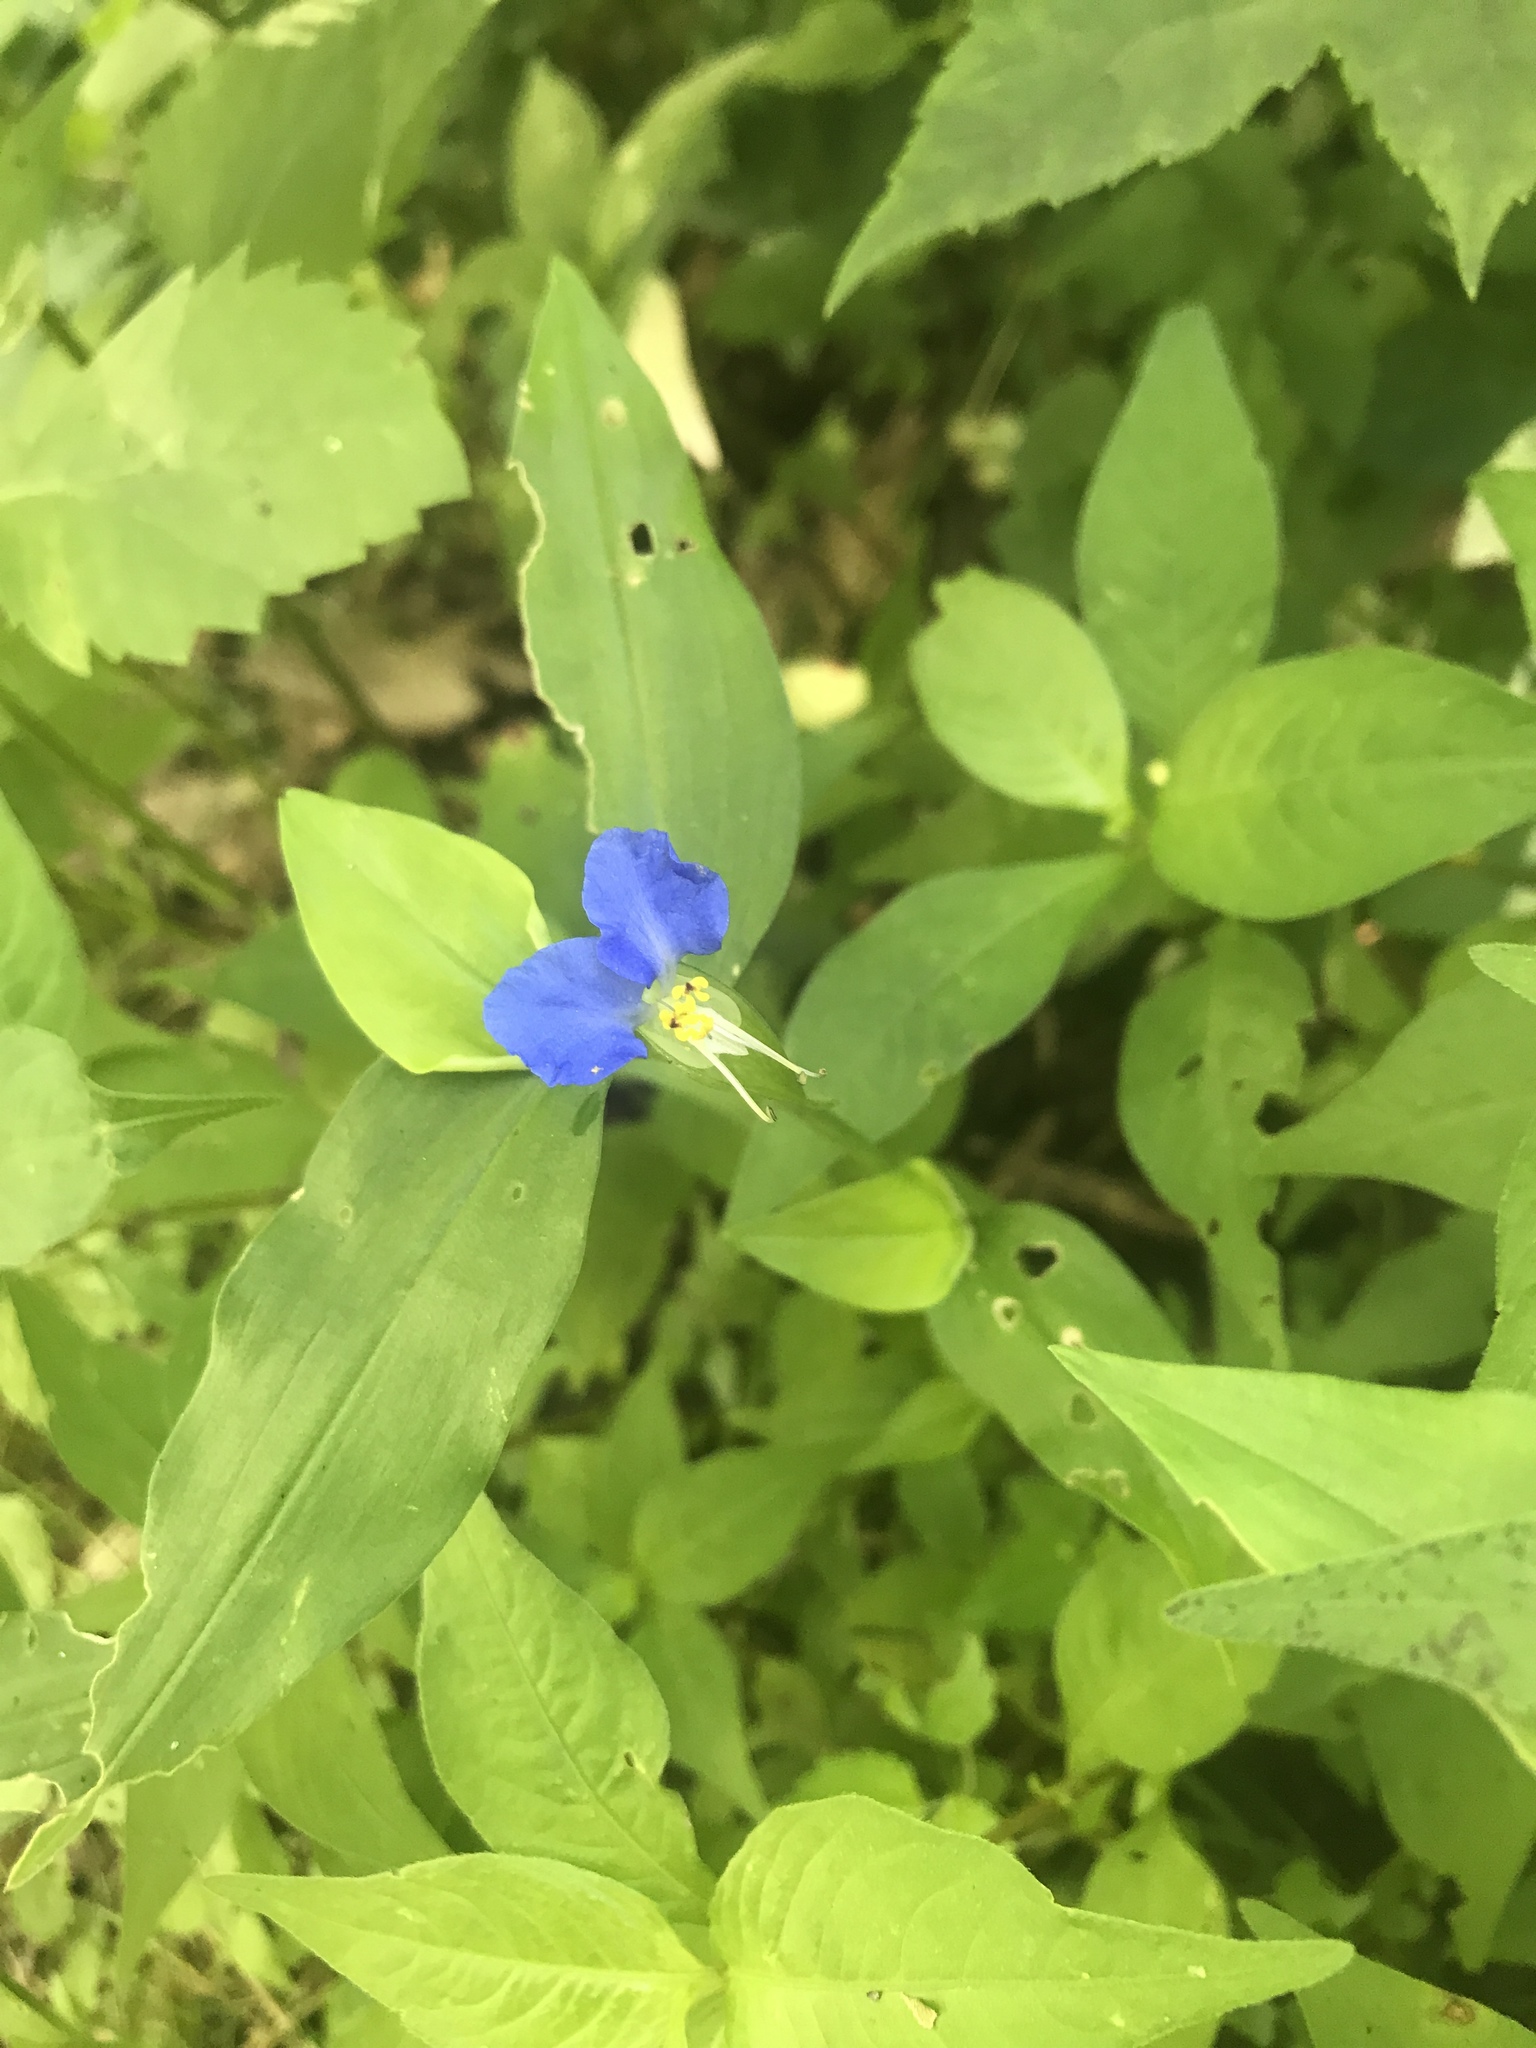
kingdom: Plantae
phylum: Tracheophyta
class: Liliopsida
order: Commelinales
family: Commelinaceae
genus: Commelina
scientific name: Commelina communis
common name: Asiatic dayflower
